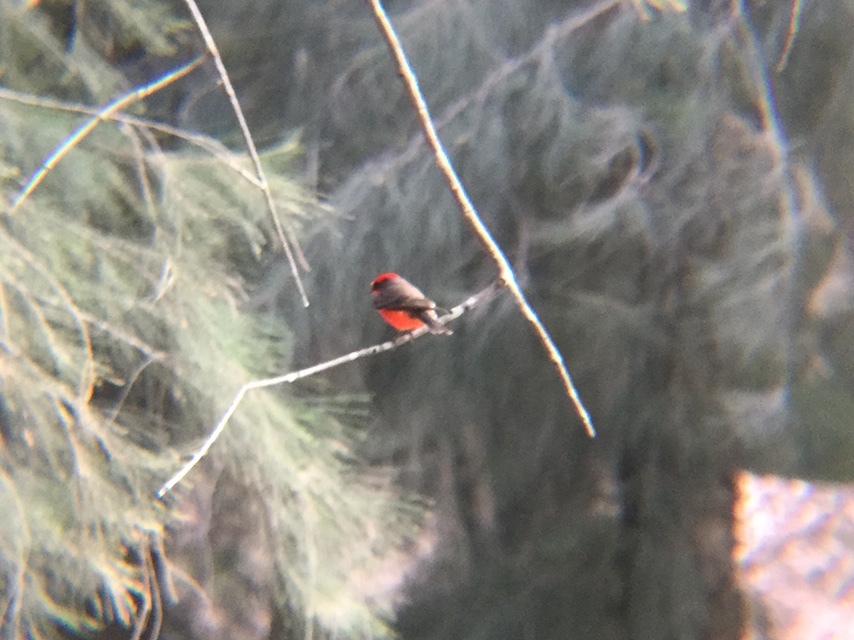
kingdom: Animalia
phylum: Chordata
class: Aves
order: Passeriformes
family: Tyrannidae
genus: Pyrocephalus
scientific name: Pyrocephalus rubinus
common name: Vermilion flycatcher
